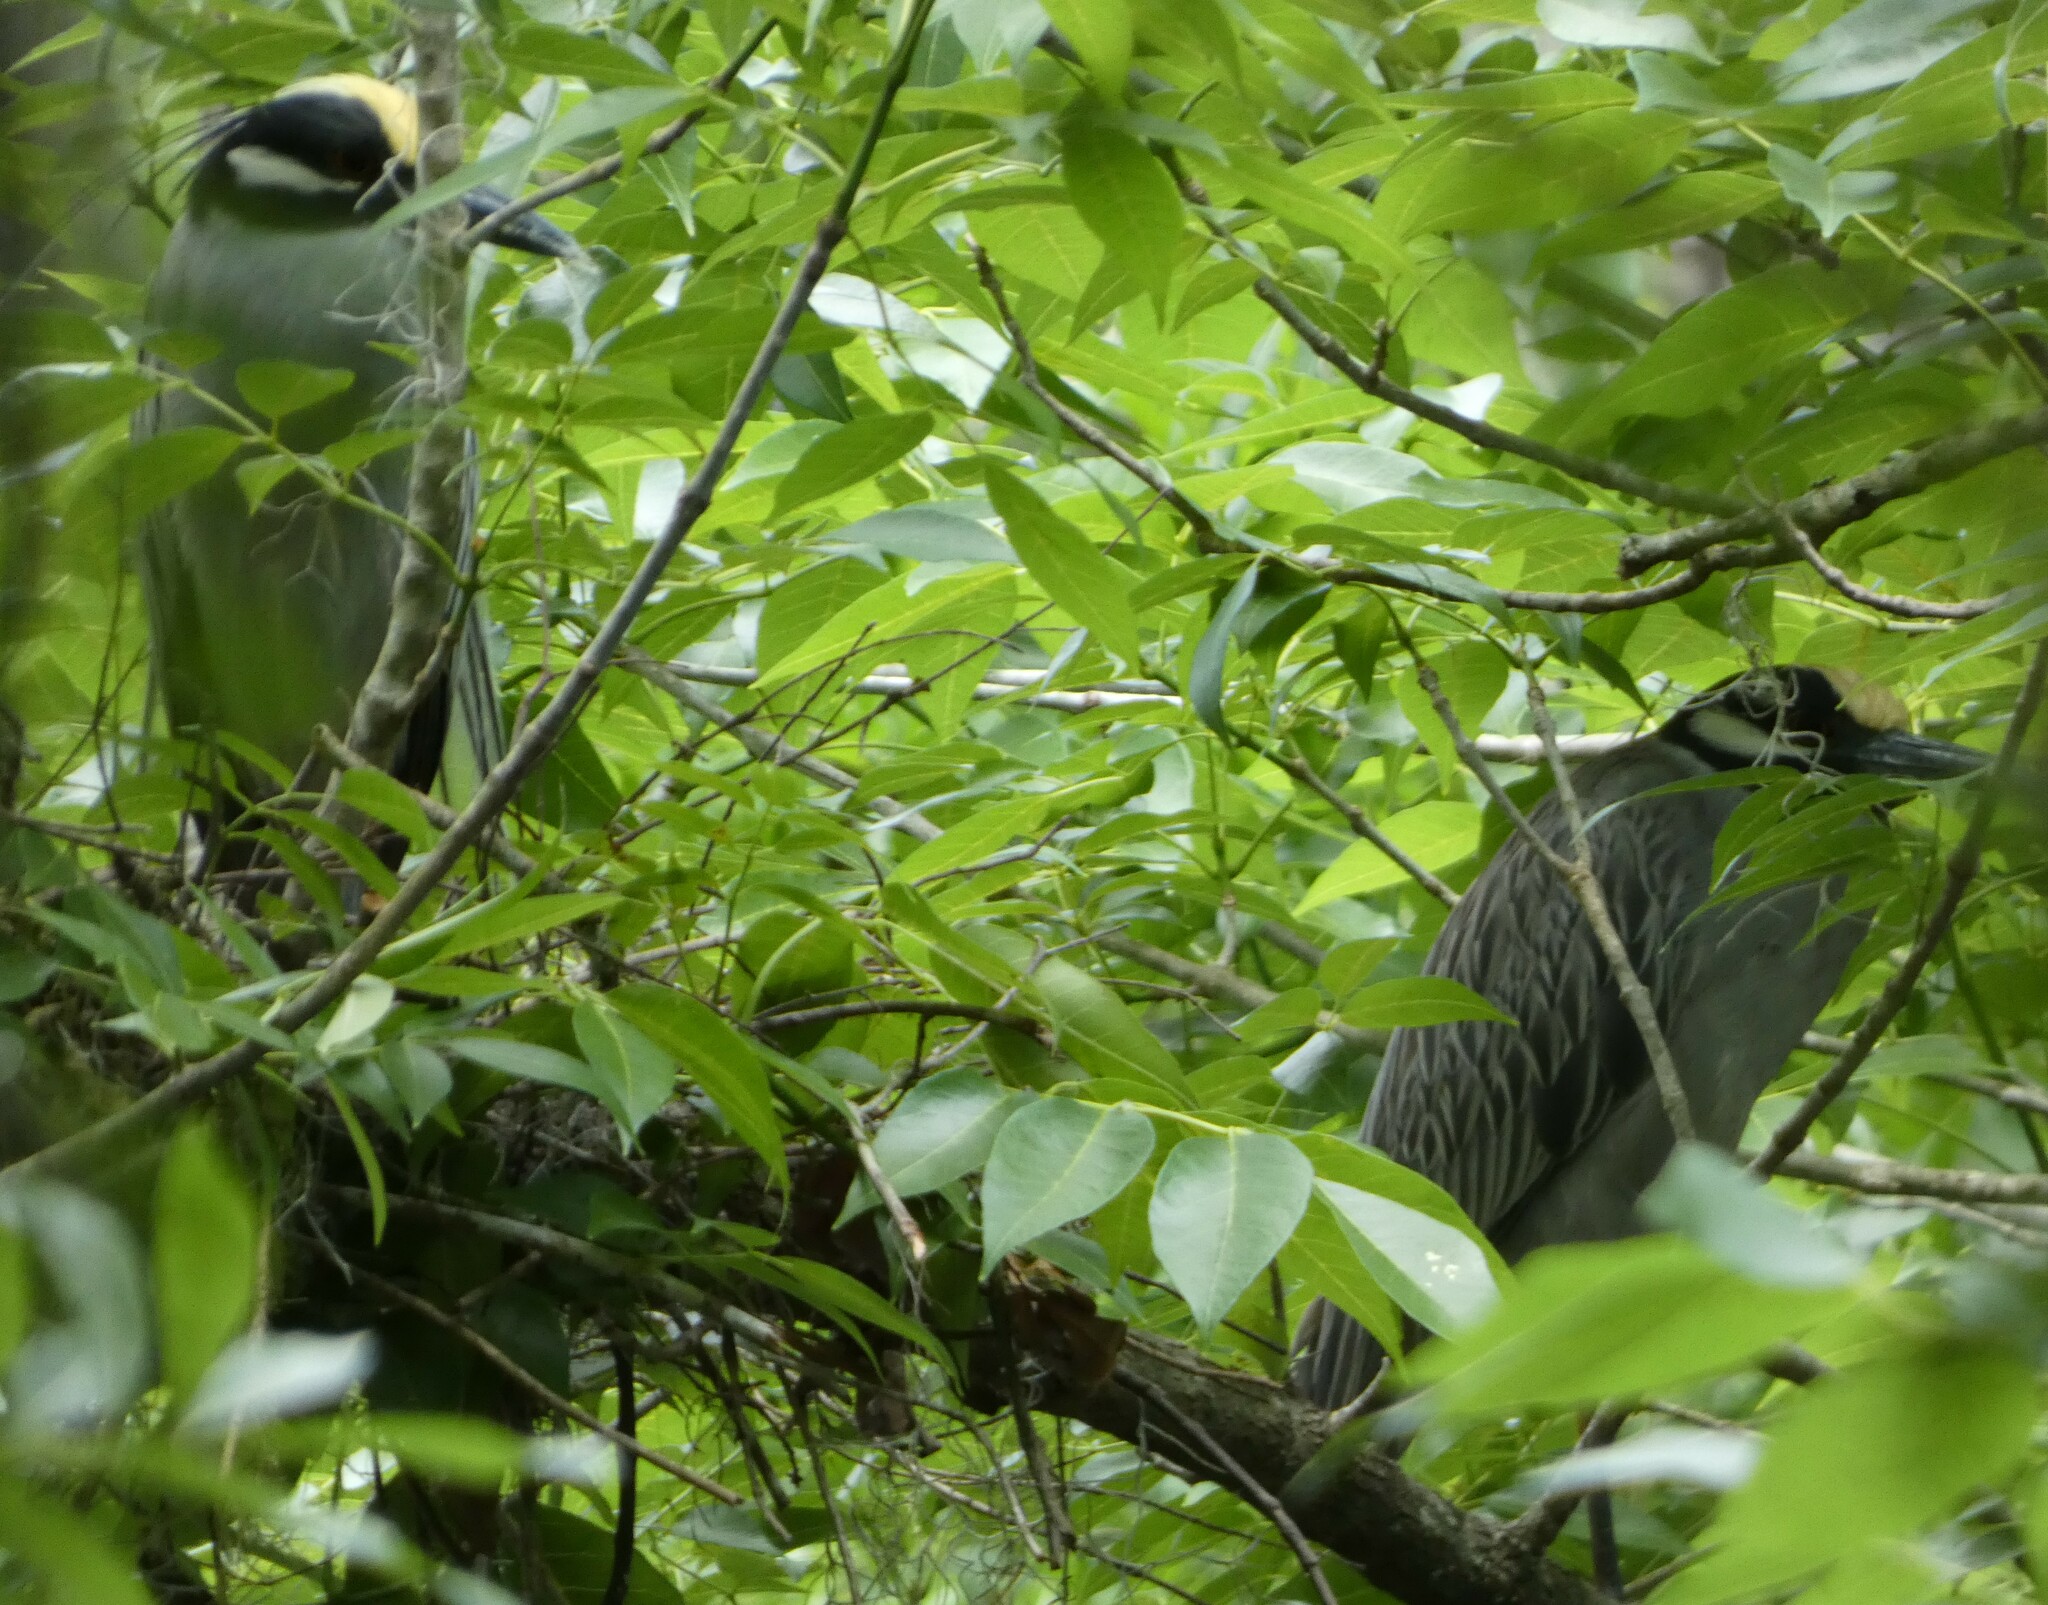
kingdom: Animalia
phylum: Chordata
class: Aves
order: Pelecaniformes
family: Ardeidae
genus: Nyctanassa
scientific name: Nyctanassa violacea
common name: Yellow-crowned night heron
